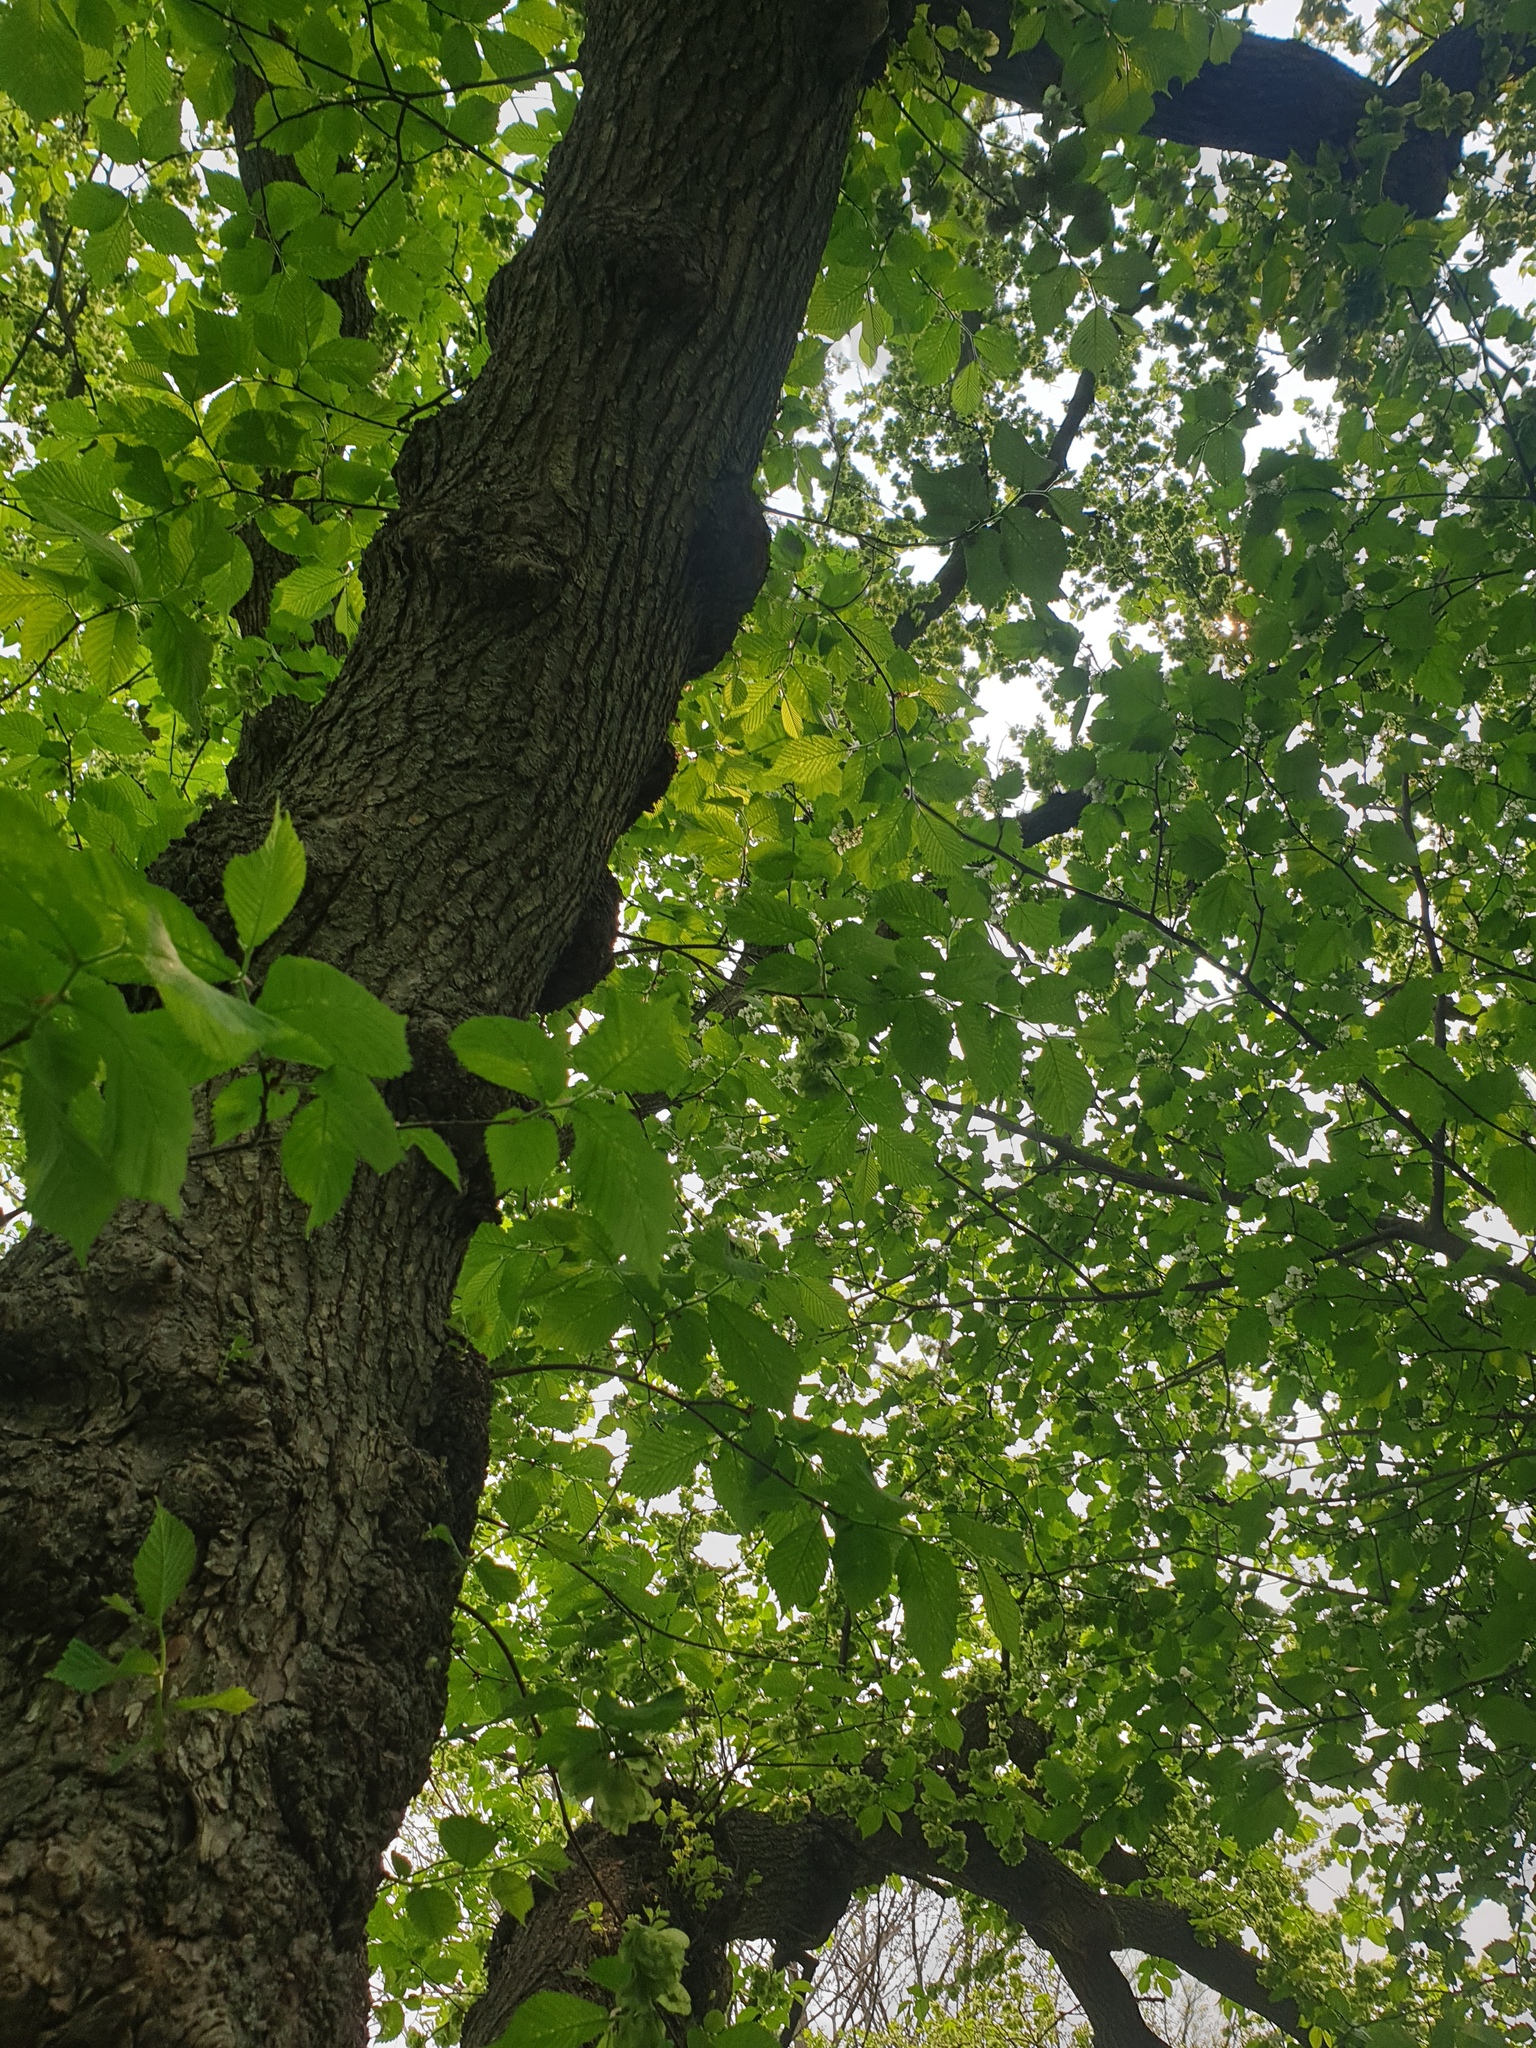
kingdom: Plantae
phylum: Tracheophyta
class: Magnoliopsida
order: Rosales
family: Ulmaceae
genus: Ulmus
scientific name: Ulmus rubra
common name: Slippery elm
